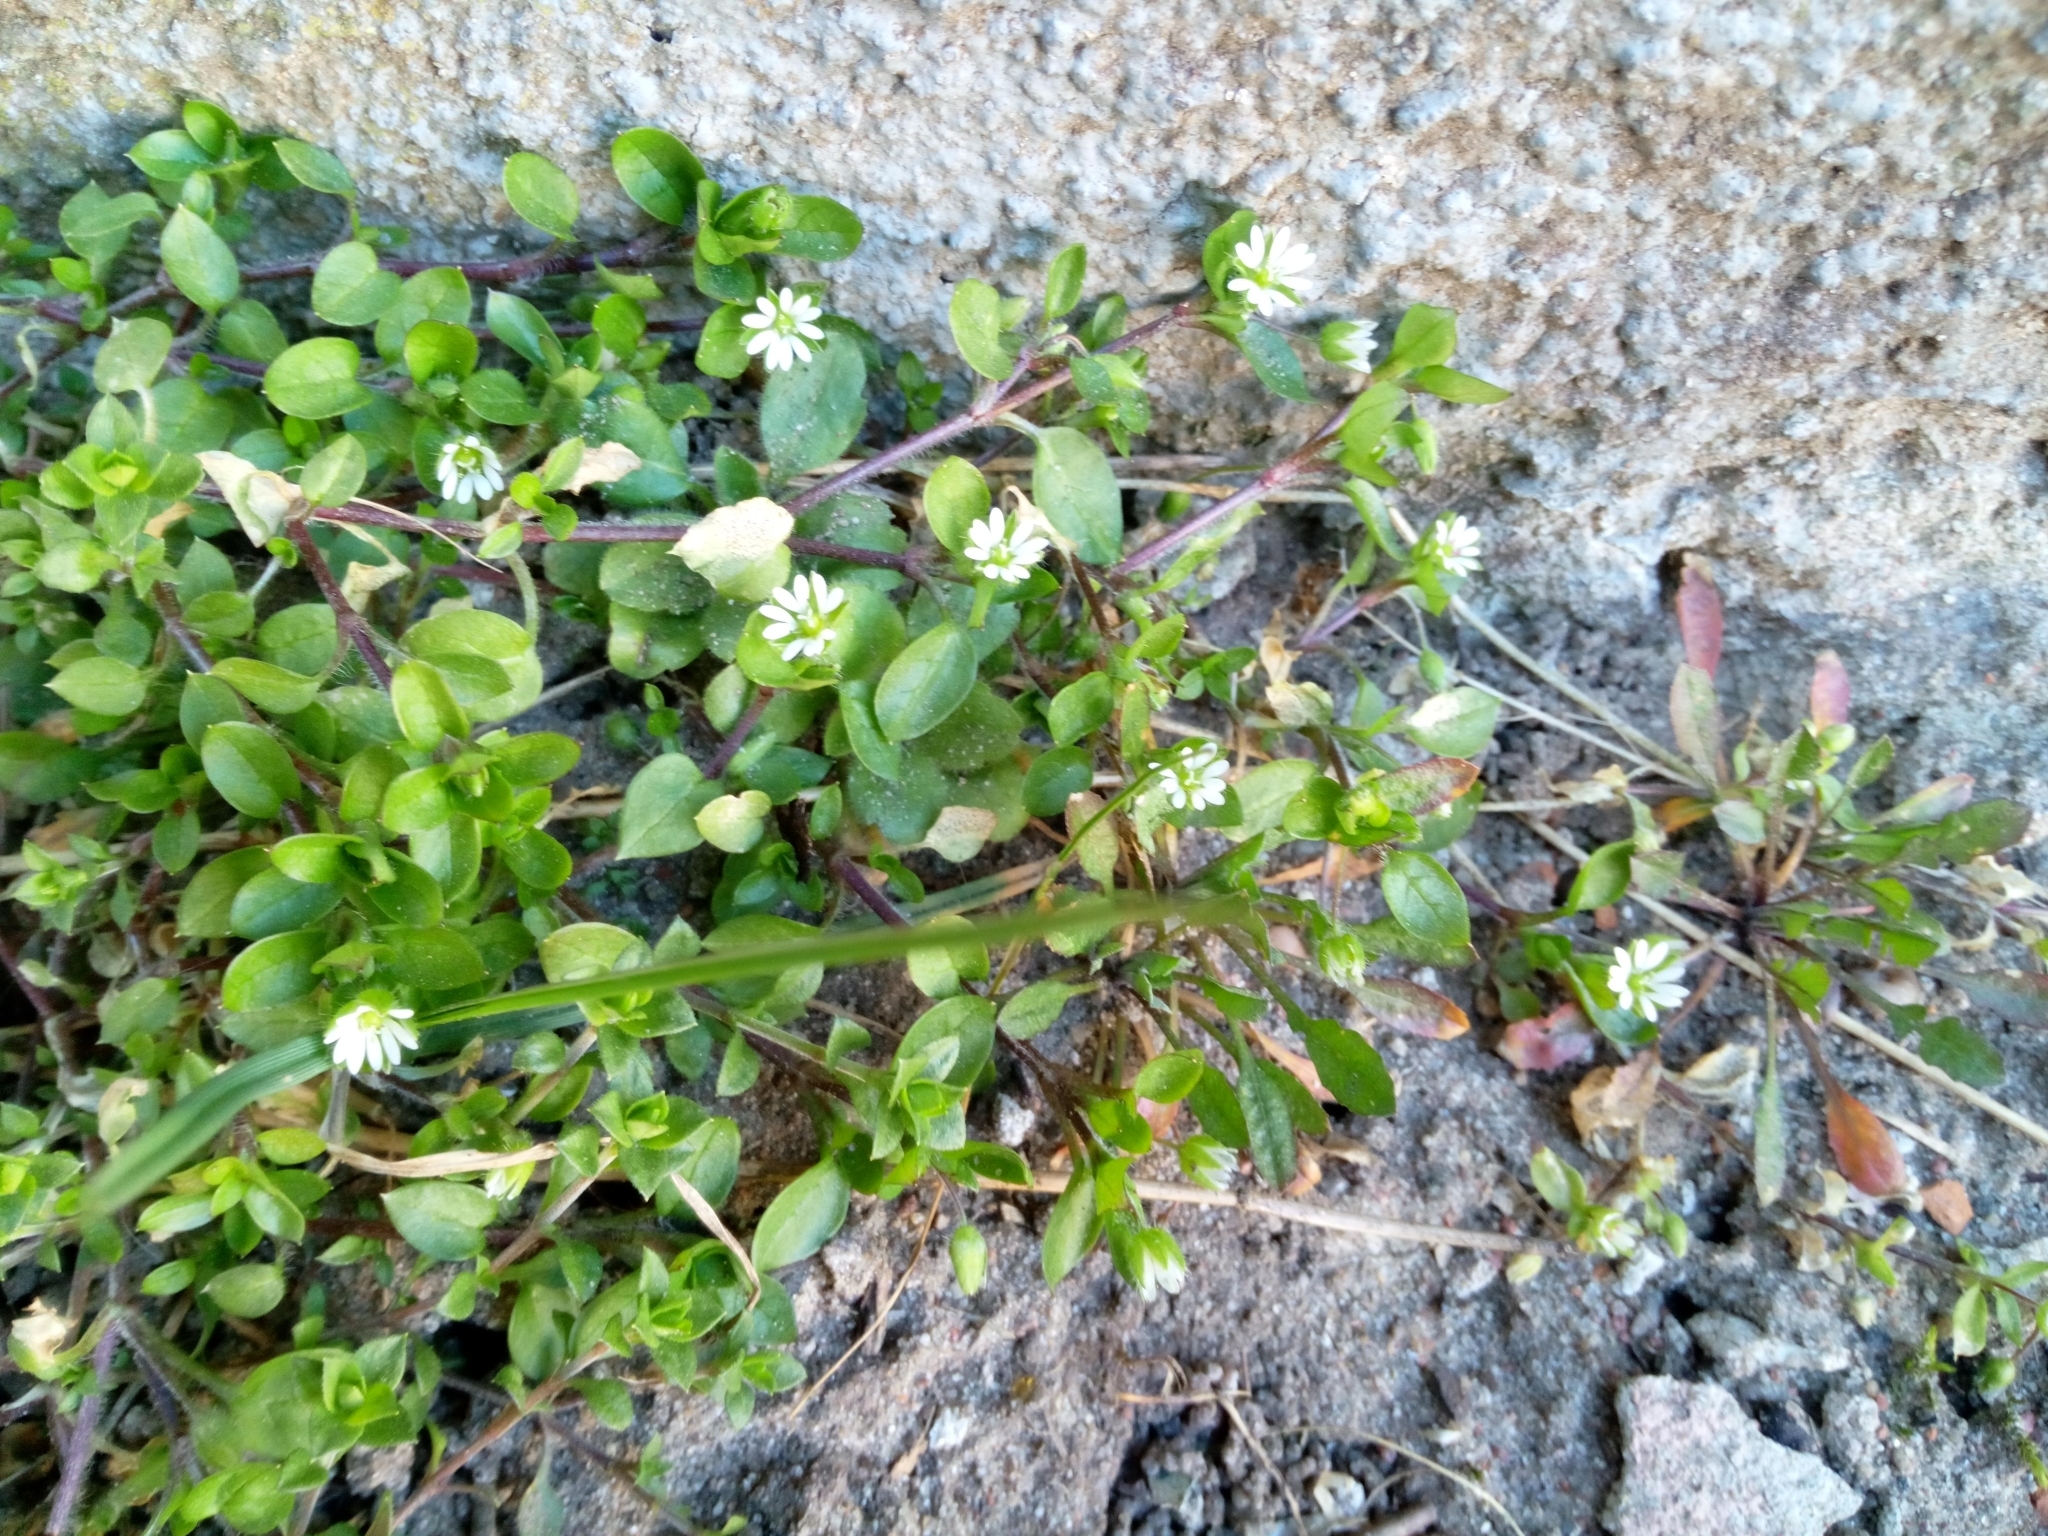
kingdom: Plantae
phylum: Tracheophyta
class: Magnoliopsida
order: Caryophyllales
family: Caryophyllaceae
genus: Stellaria
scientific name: Stellaria
